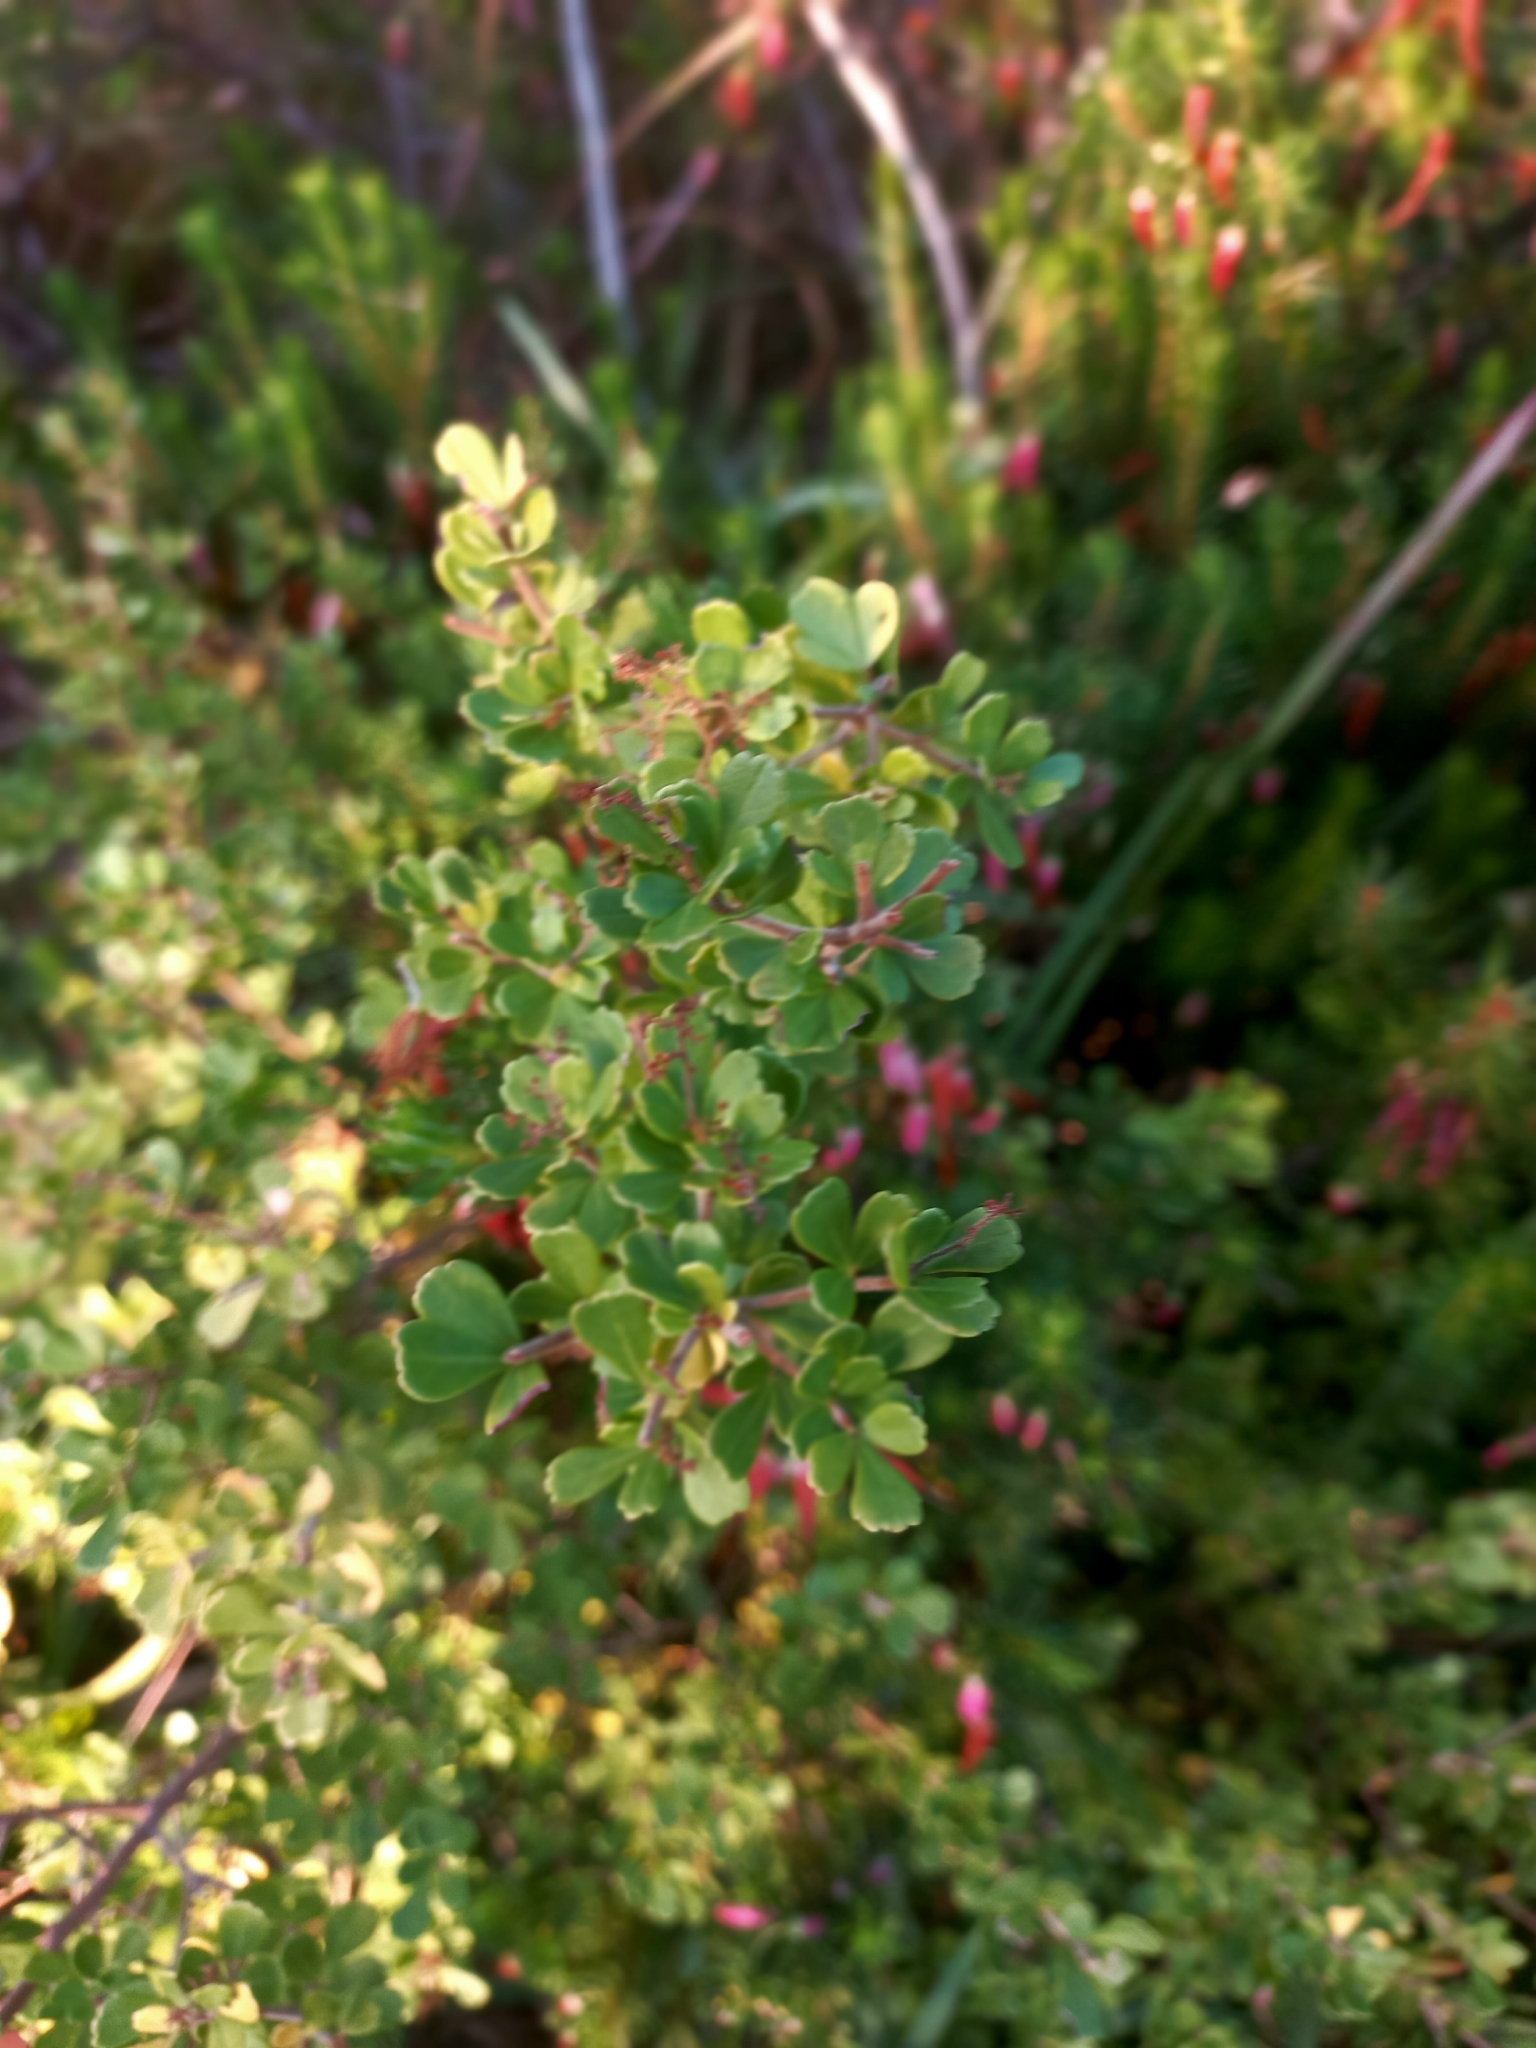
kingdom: Plantae
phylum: Tracheophyta
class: Magnoliopsida
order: Sapindales
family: Anacardiaceae
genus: Searsia
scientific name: Searsia crenata
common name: Crowberry
